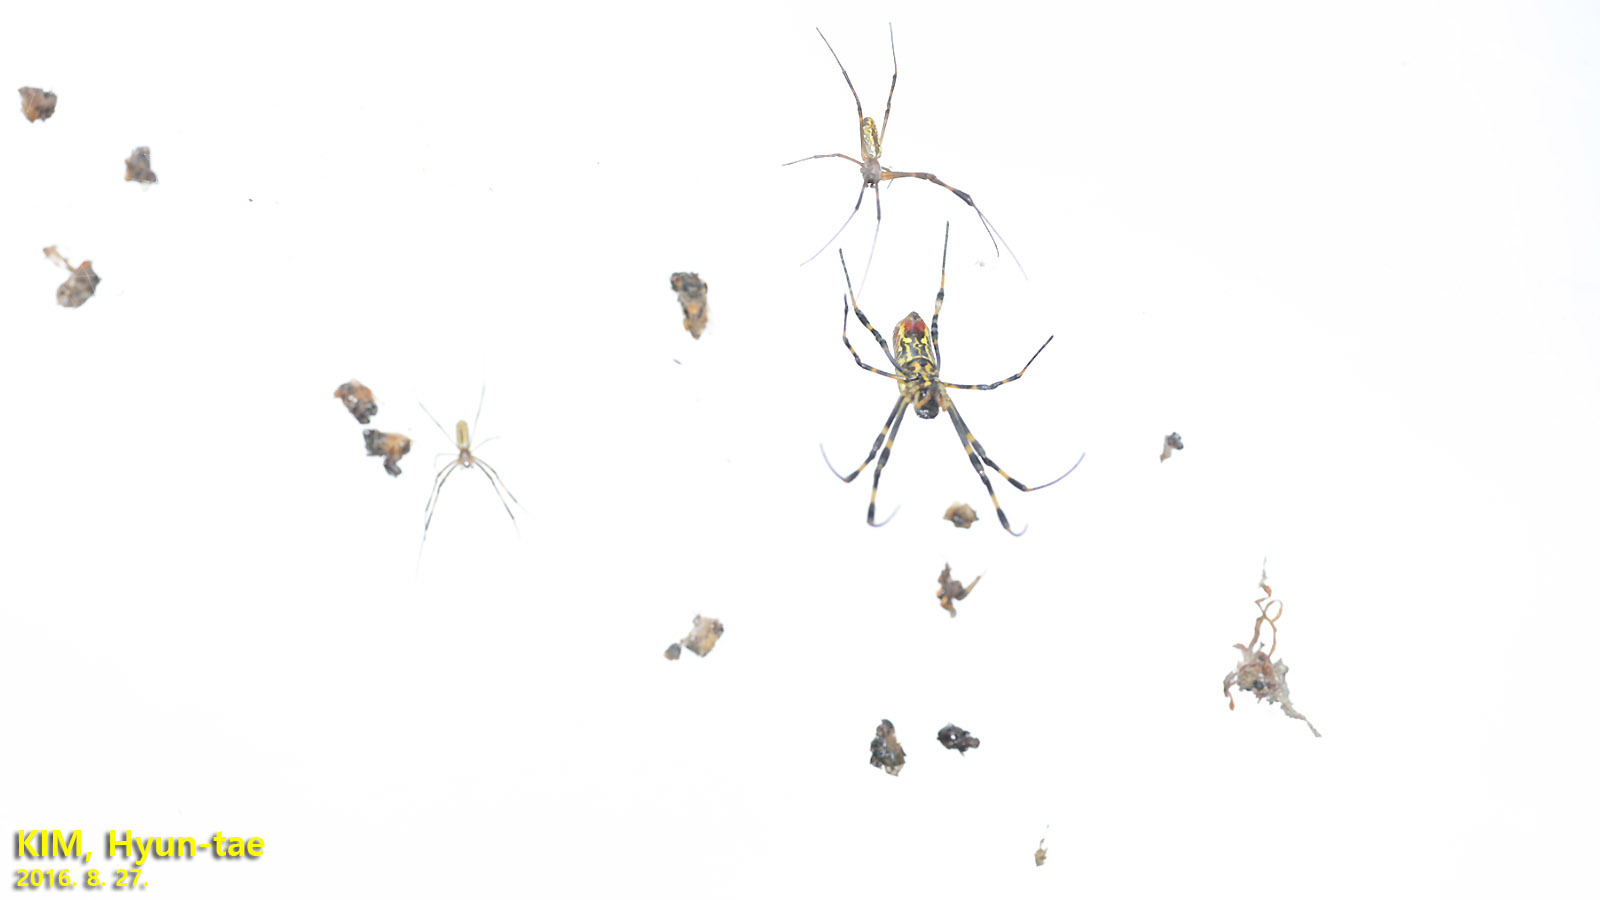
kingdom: Animalia
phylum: Arthropoda
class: Arachnida
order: Araneae
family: Araneidae
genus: Trichonephila
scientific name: Trichonephila clavata
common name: Jorō spider
